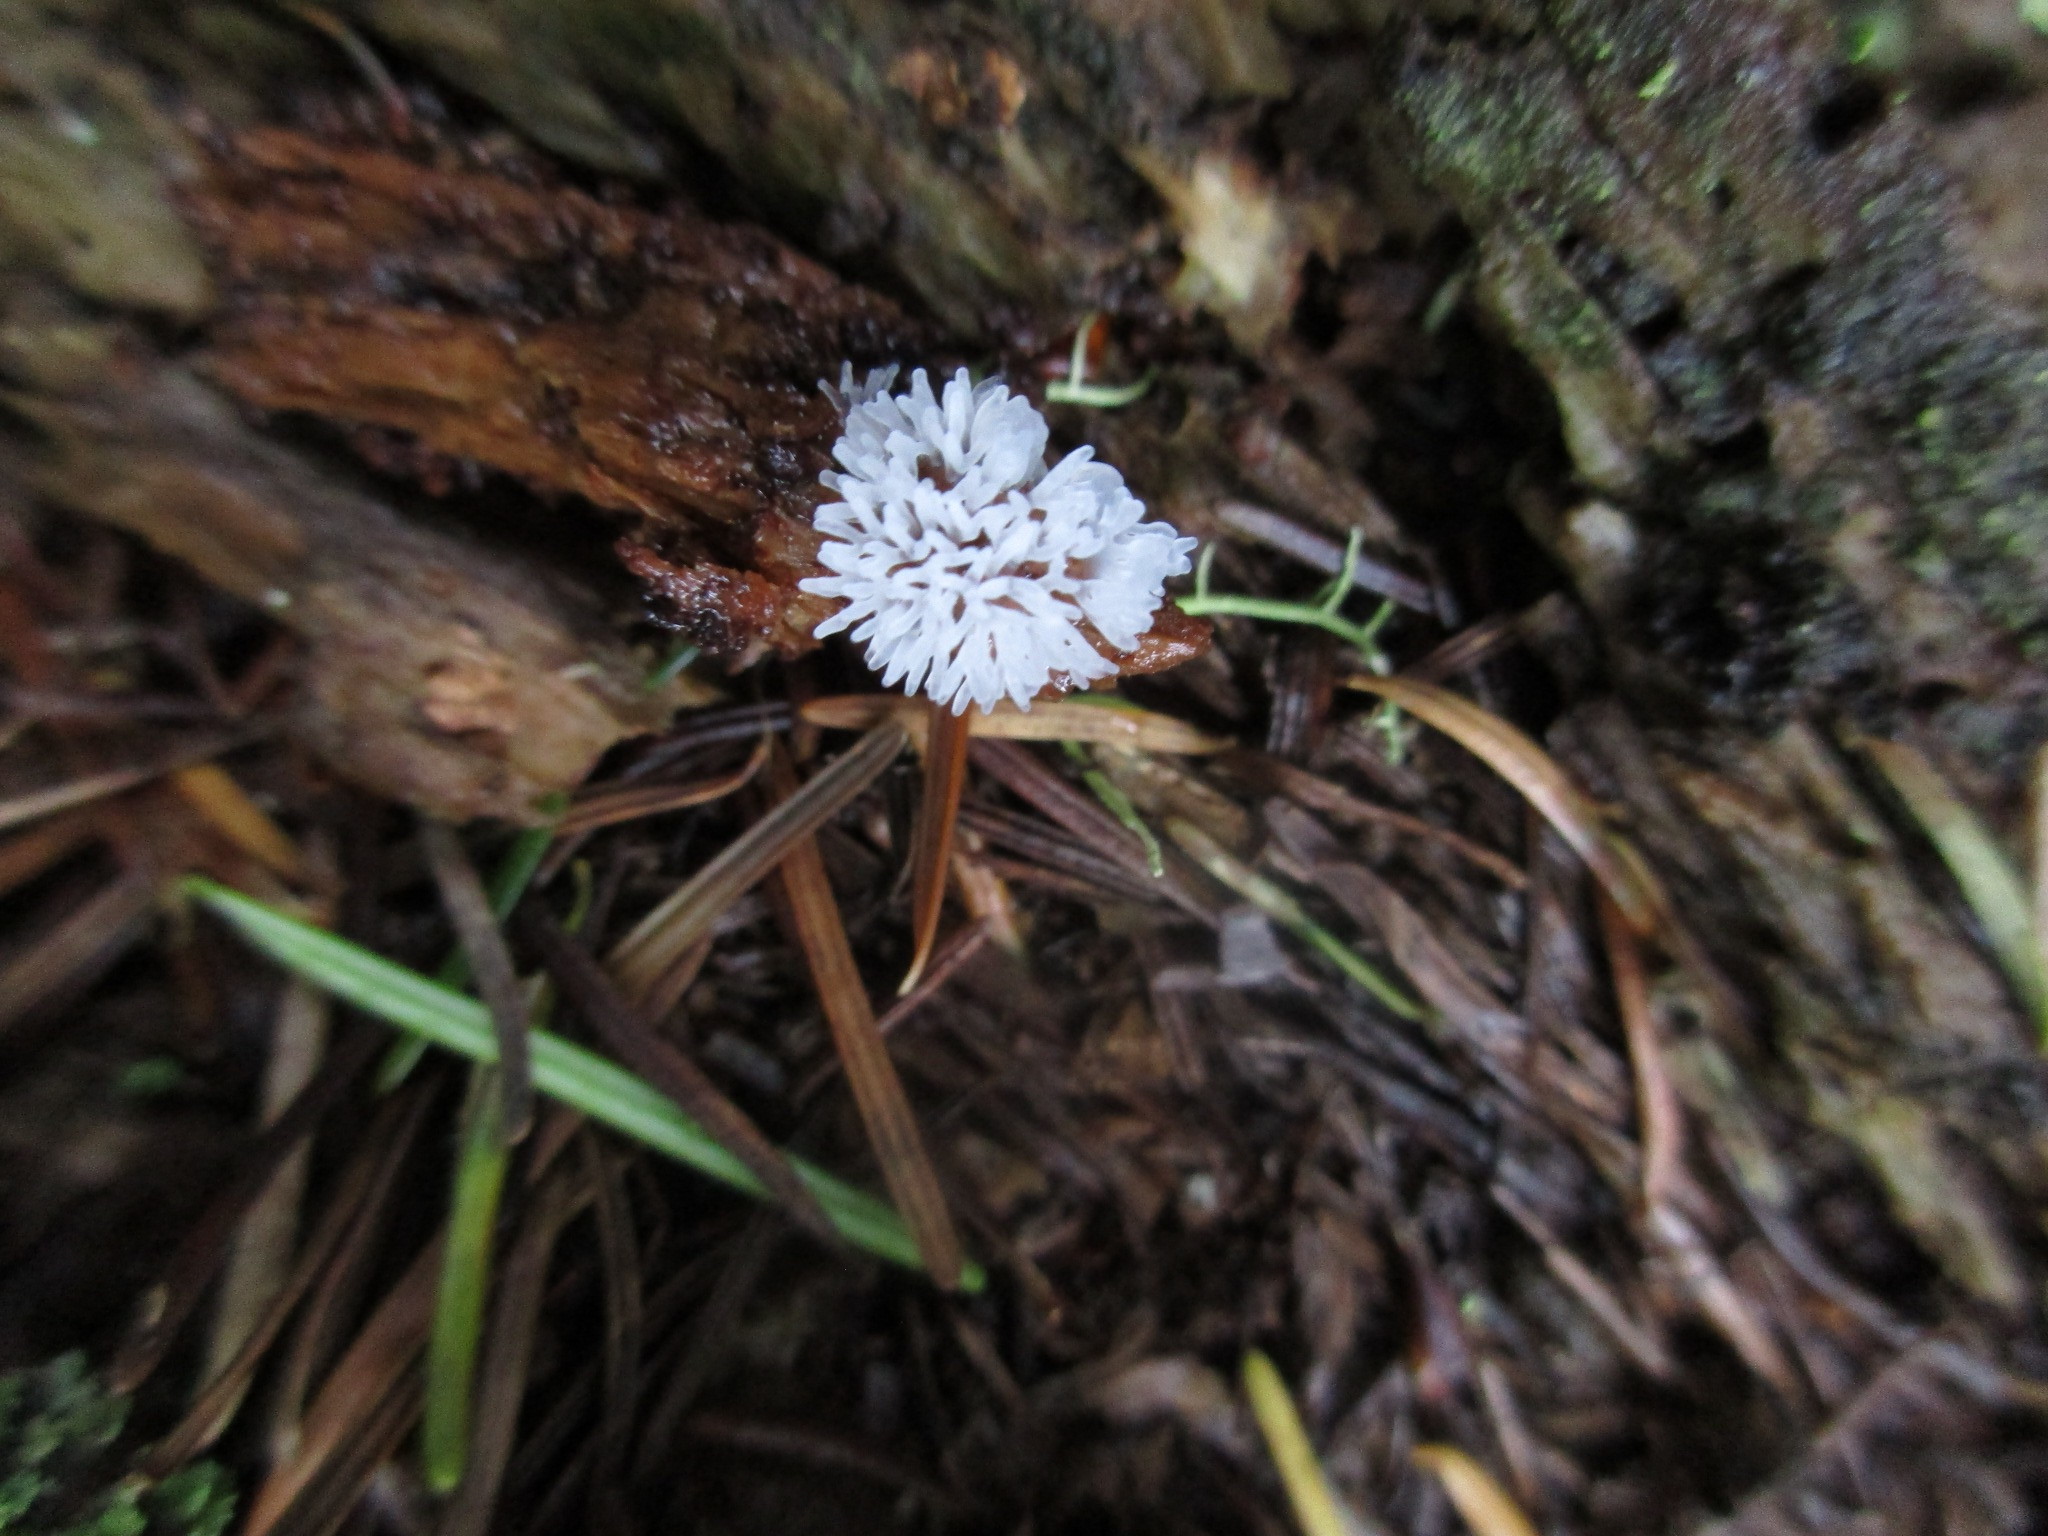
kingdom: Protozoa
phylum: Mycetozoa
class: Protosteliomycetes
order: Ceratiomyxales
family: Ceratiomyxaceae
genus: Ceratiomyxa
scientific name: Ceratiomyxa fruticulosa
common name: Honeycomb coral slime mold
